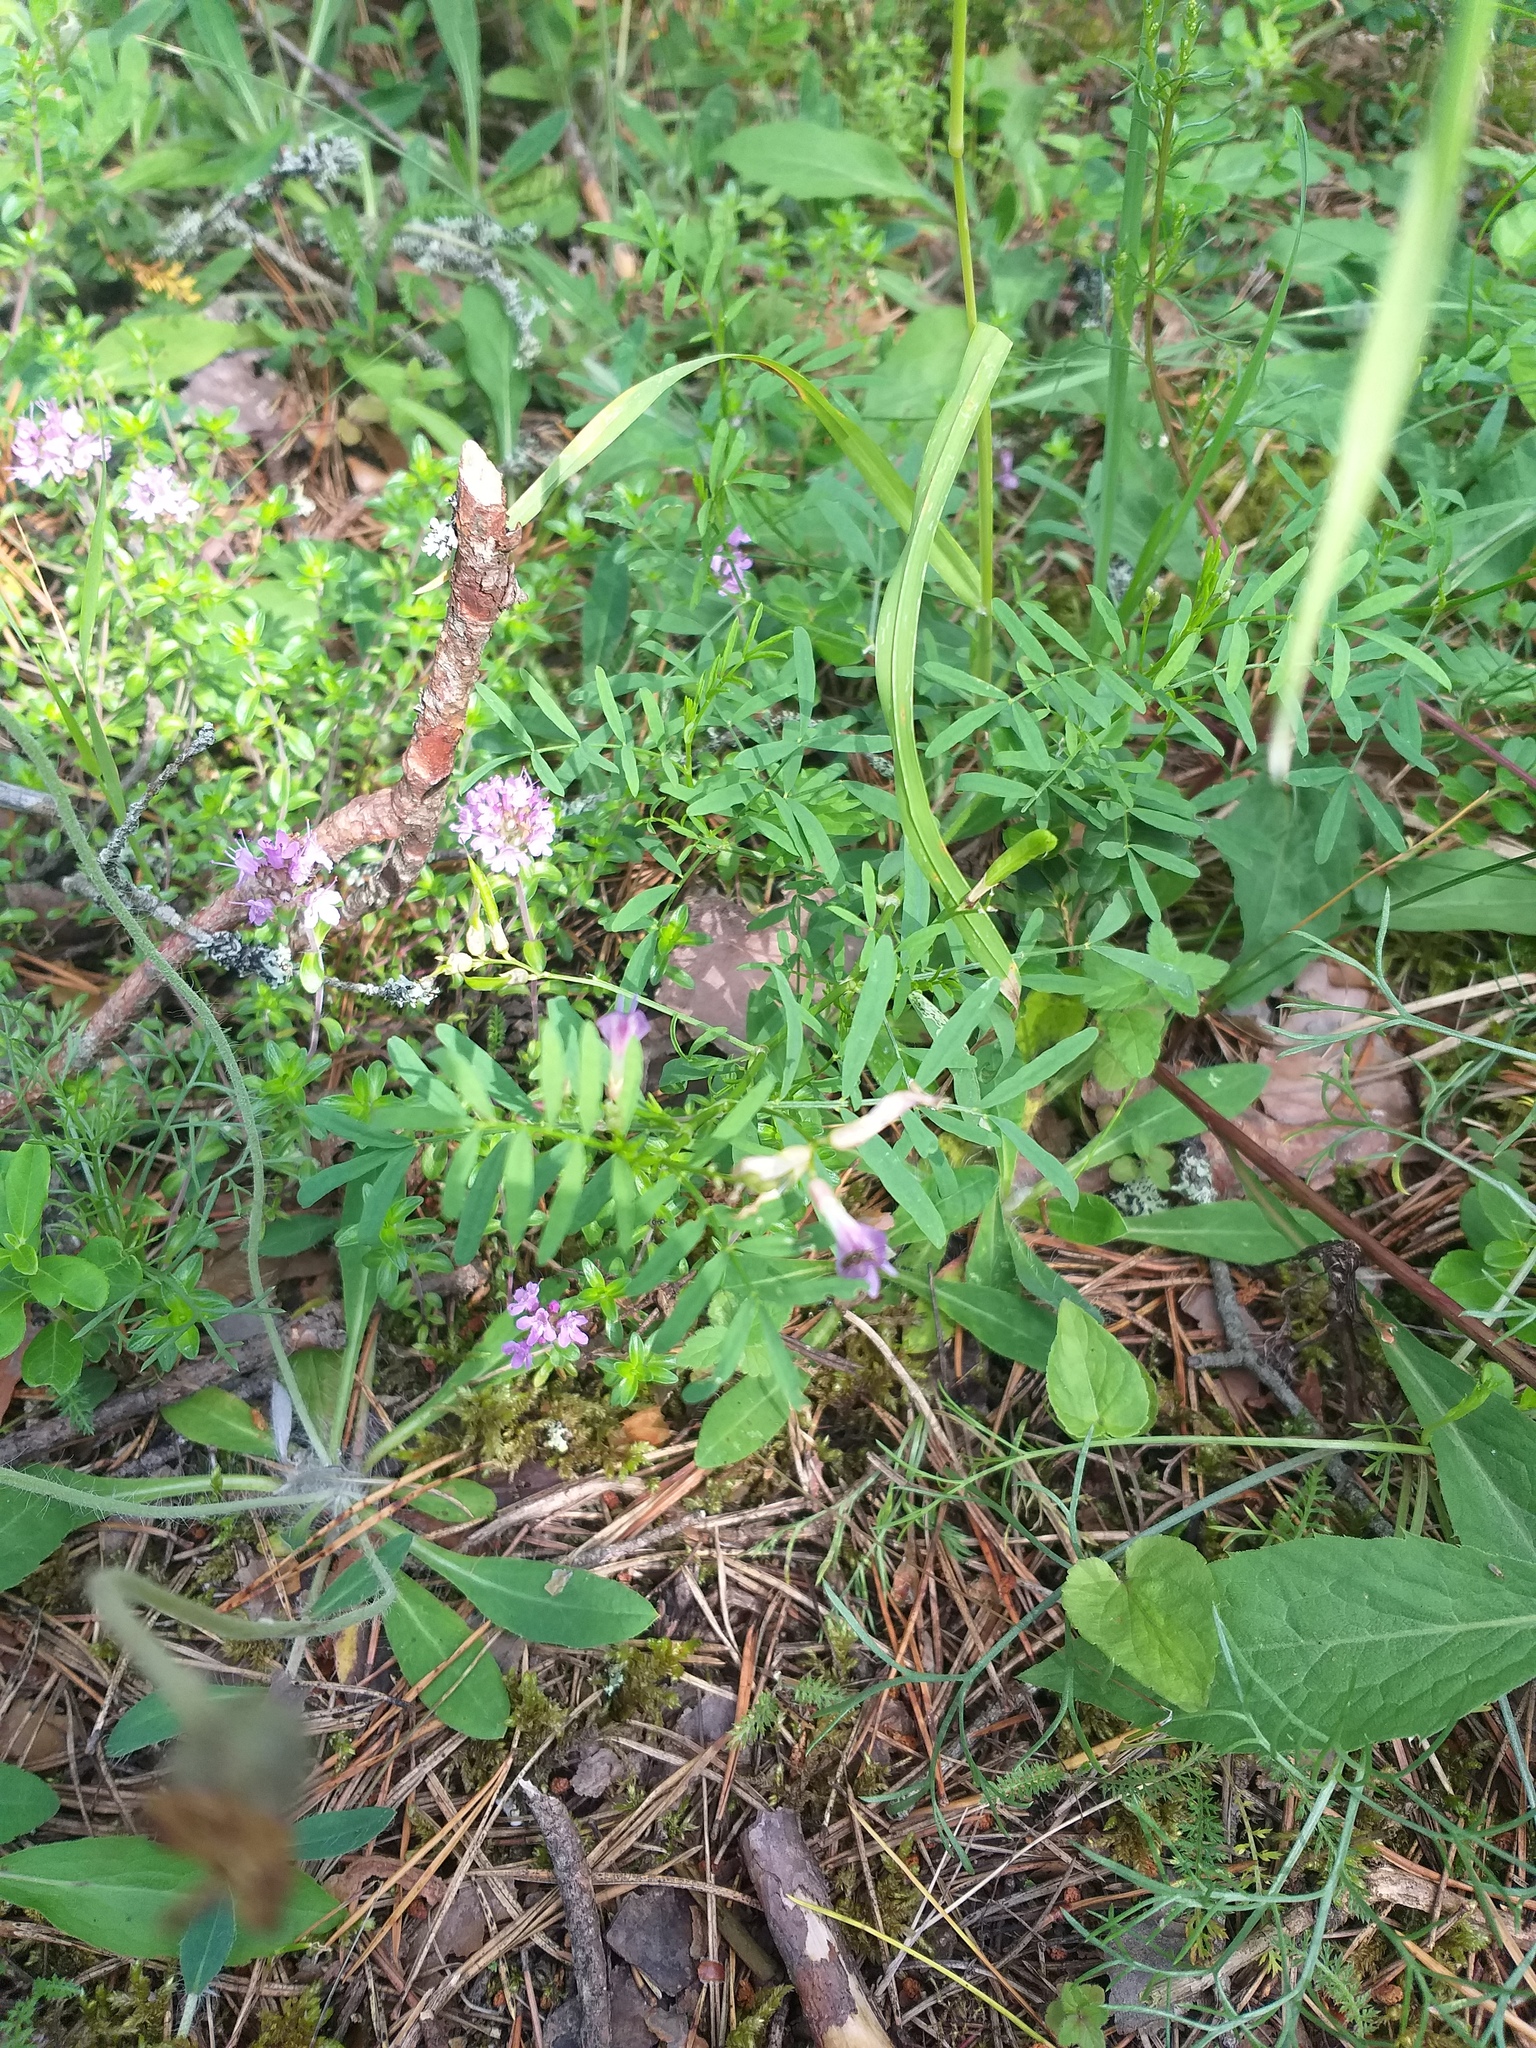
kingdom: Plantae
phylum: Tracheophyta
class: Magnoliopsida
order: Fabales
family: Fabaceae
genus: Astragalus
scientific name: Astragalus arenarius
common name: Arenarious milk-vetch
